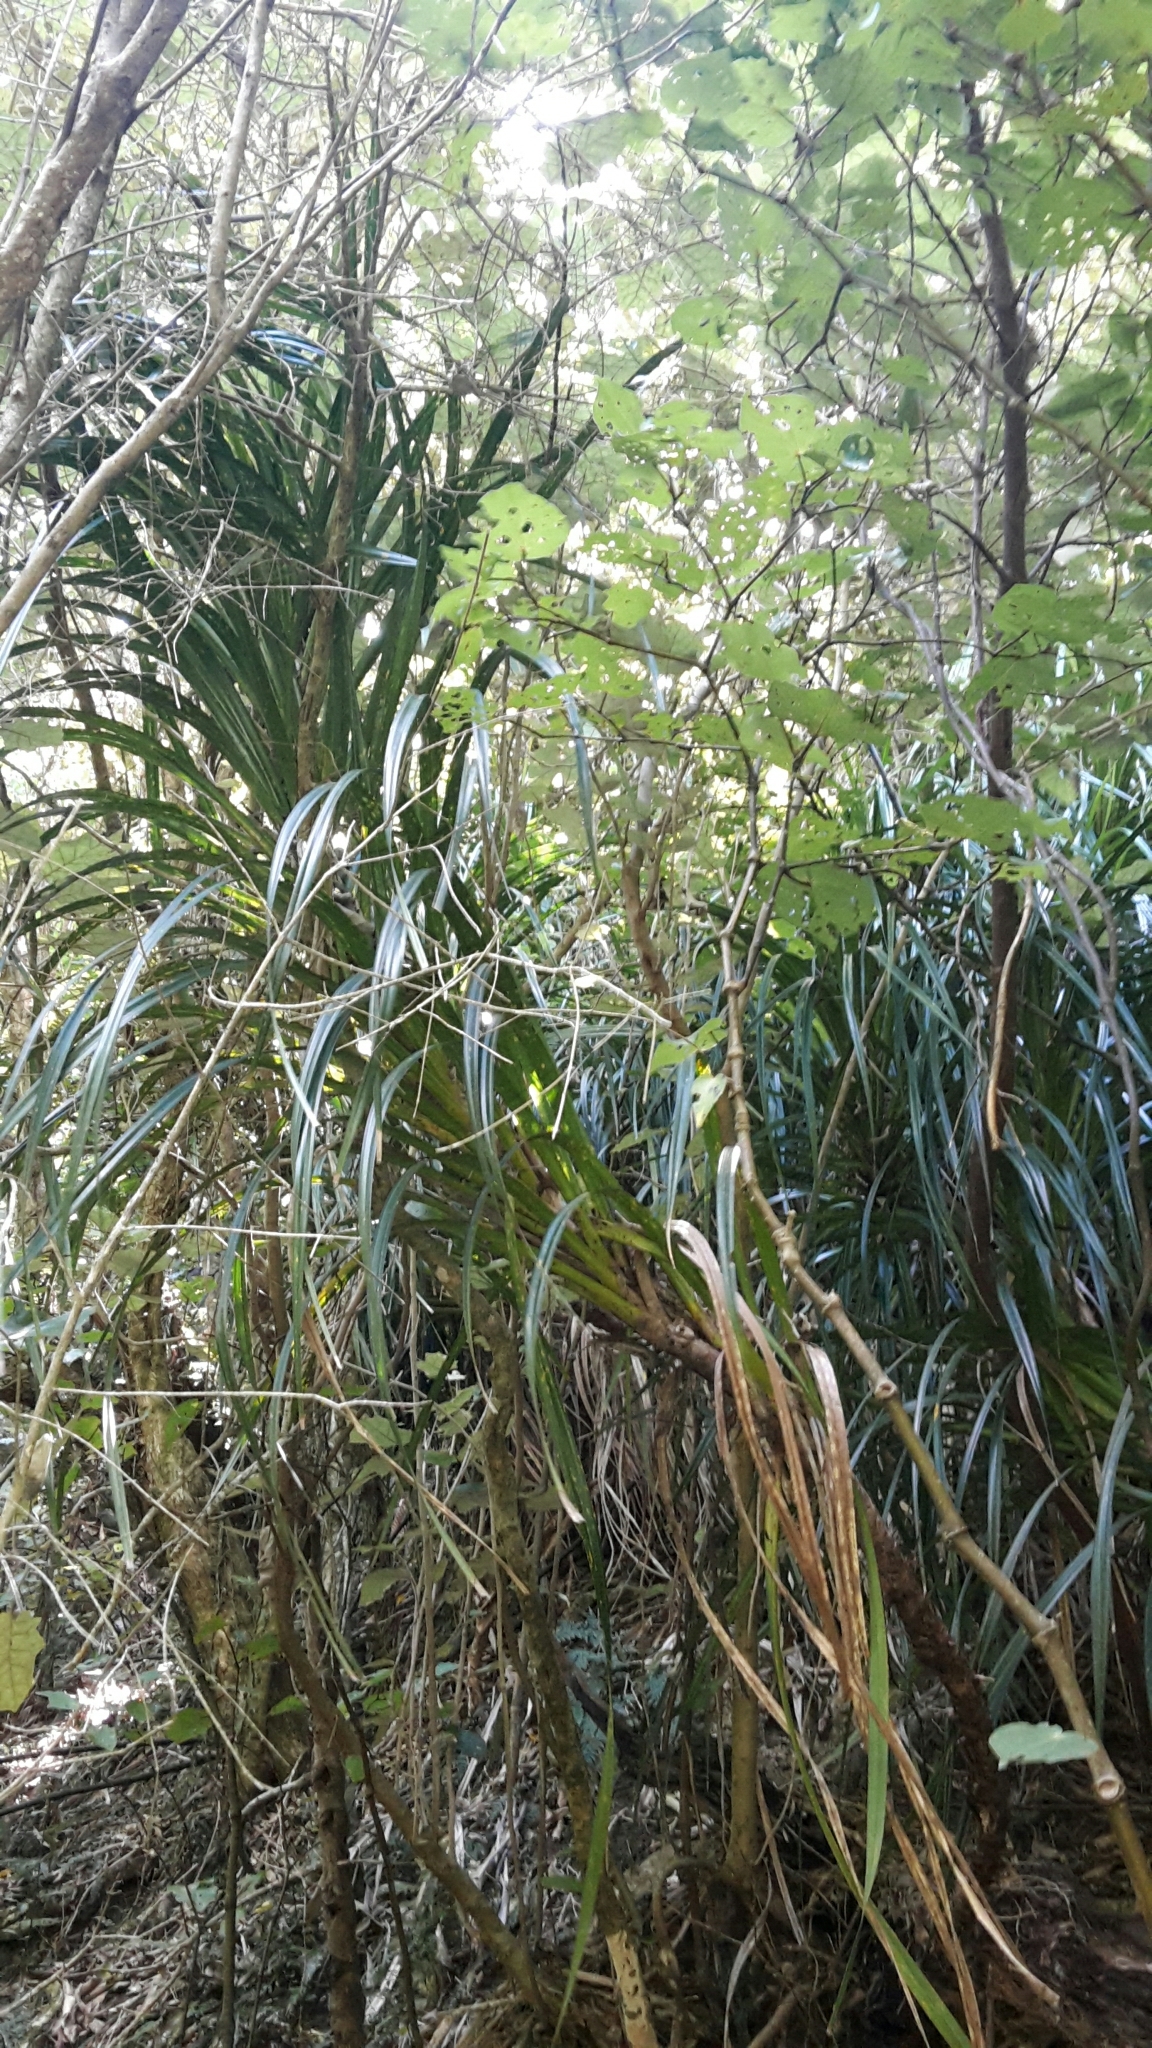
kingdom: Plantae
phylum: Tracheophyta
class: Liliopsida
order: Pandanales
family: Pandanaceae
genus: Freycinetia
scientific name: Freycinetia banksii
